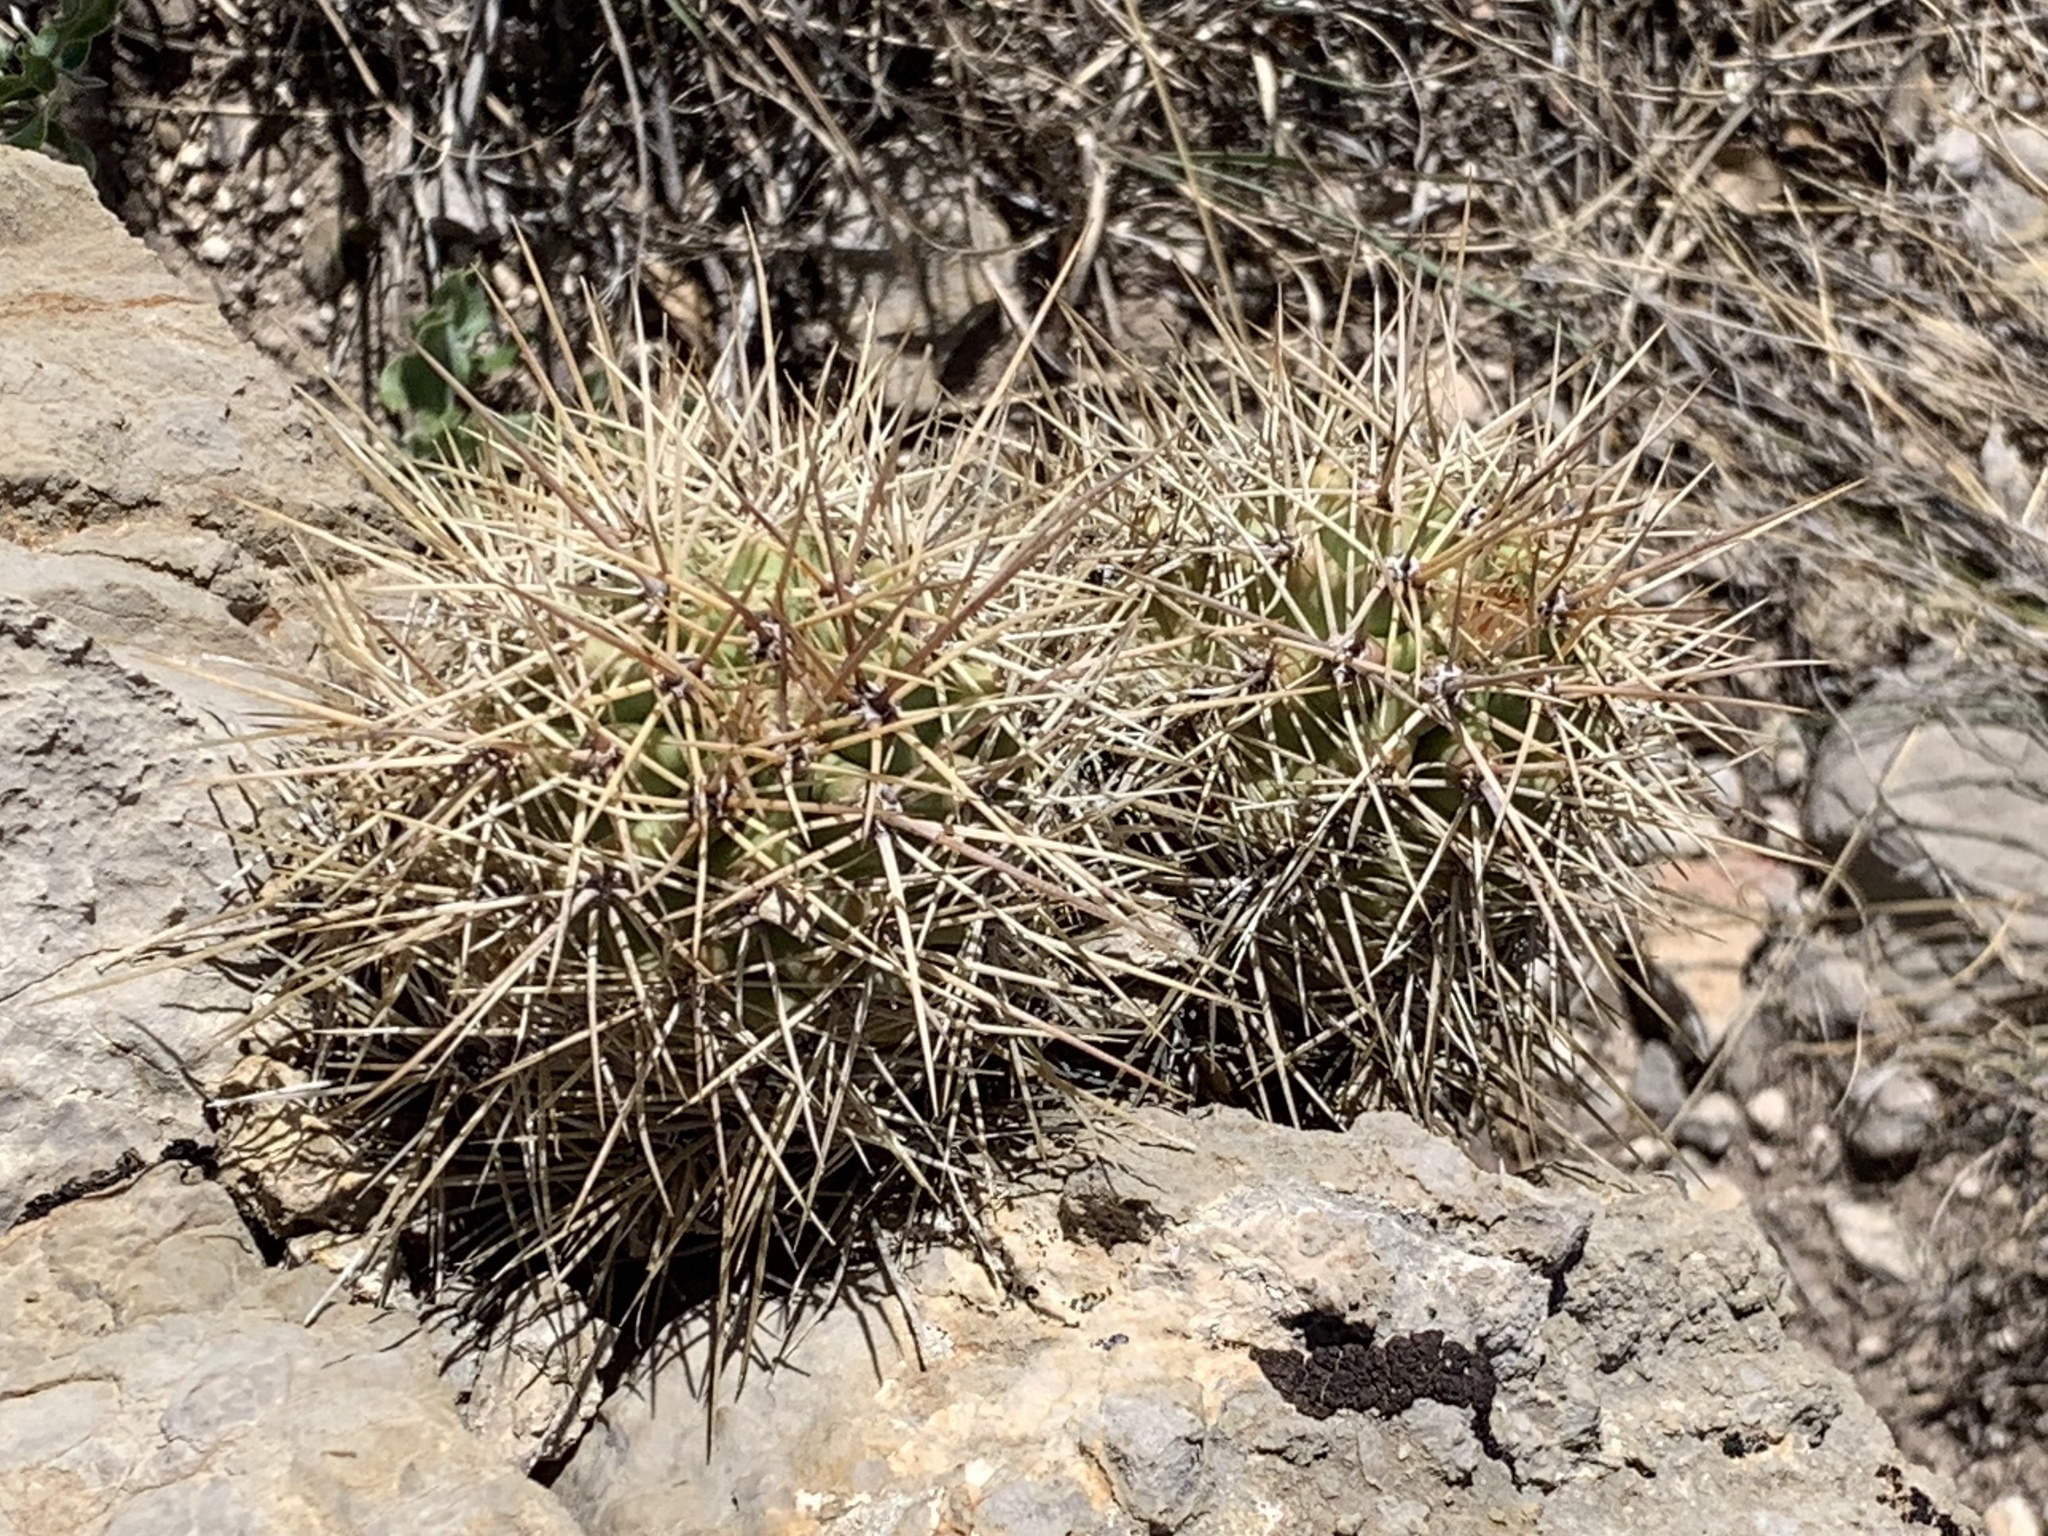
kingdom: Plantae
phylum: Tracheophyta
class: Magnoliopsida
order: Caryophyllales
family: Cactaceae
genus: Echinocereus
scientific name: Echinocereus coccineus
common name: Scarlet hedgehog cactus
